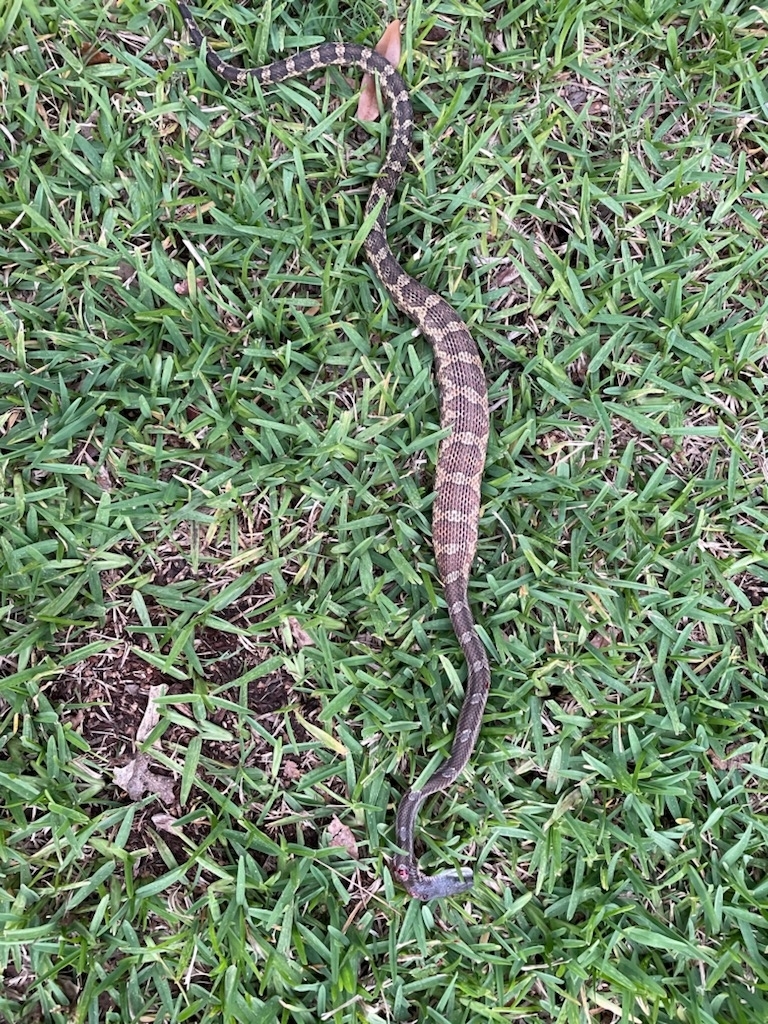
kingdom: Animalia
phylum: Chordata
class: Squamata
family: Colubridae
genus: Pantherophis
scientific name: Pantherophis obsoletus
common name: Black rat snake
